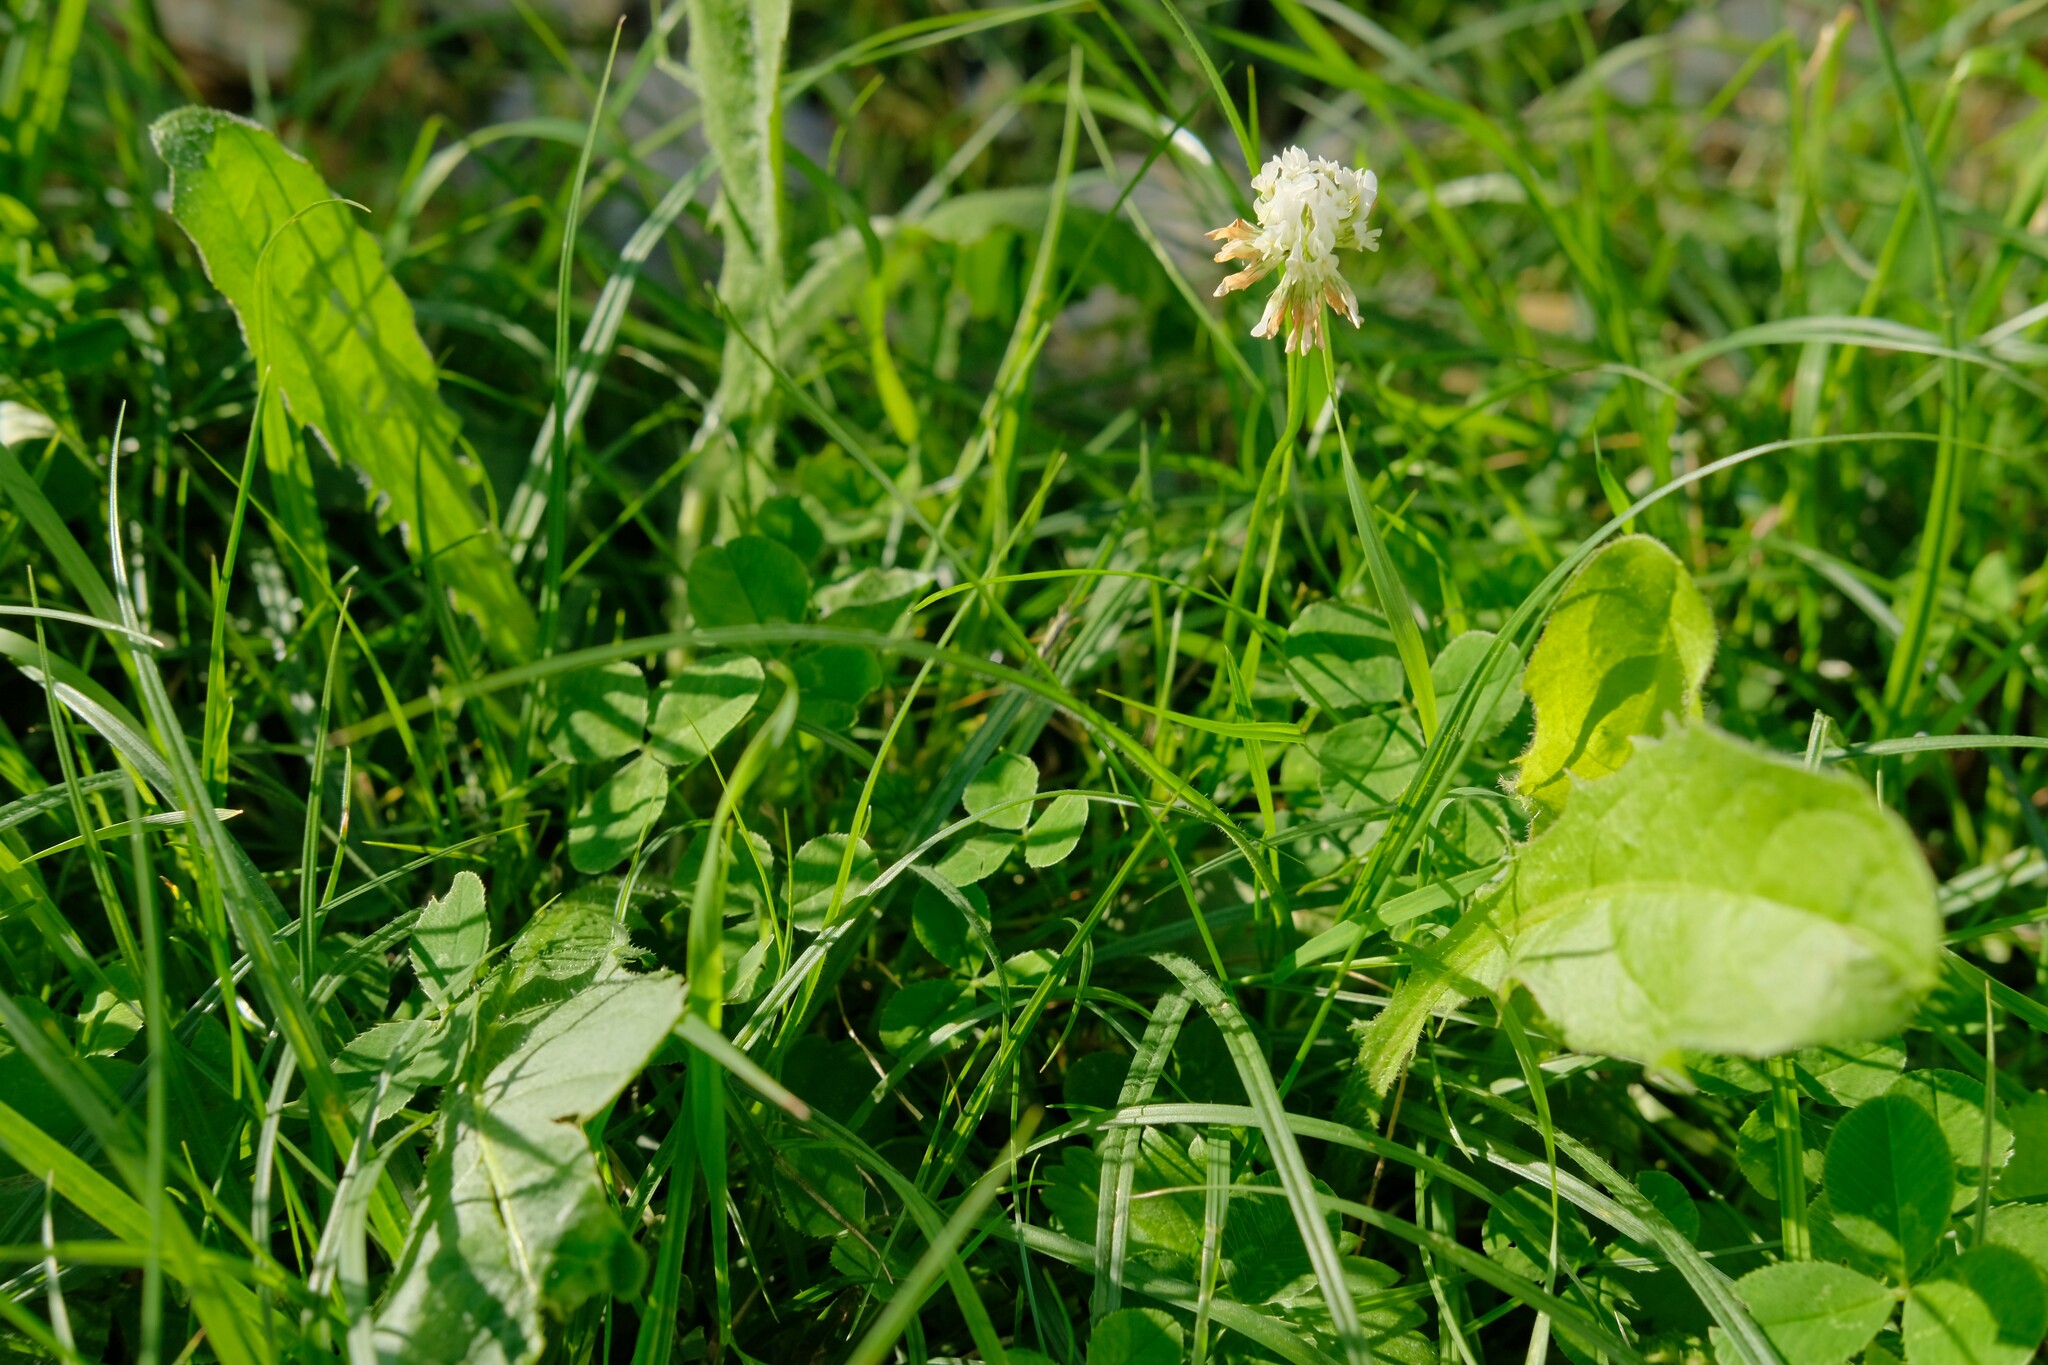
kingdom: Plantae
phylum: Tracheophyta
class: Magnoliopsida
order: Fabales
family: Fabaceae
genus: Trifolium
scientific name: Trifolium repens
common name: White clover
